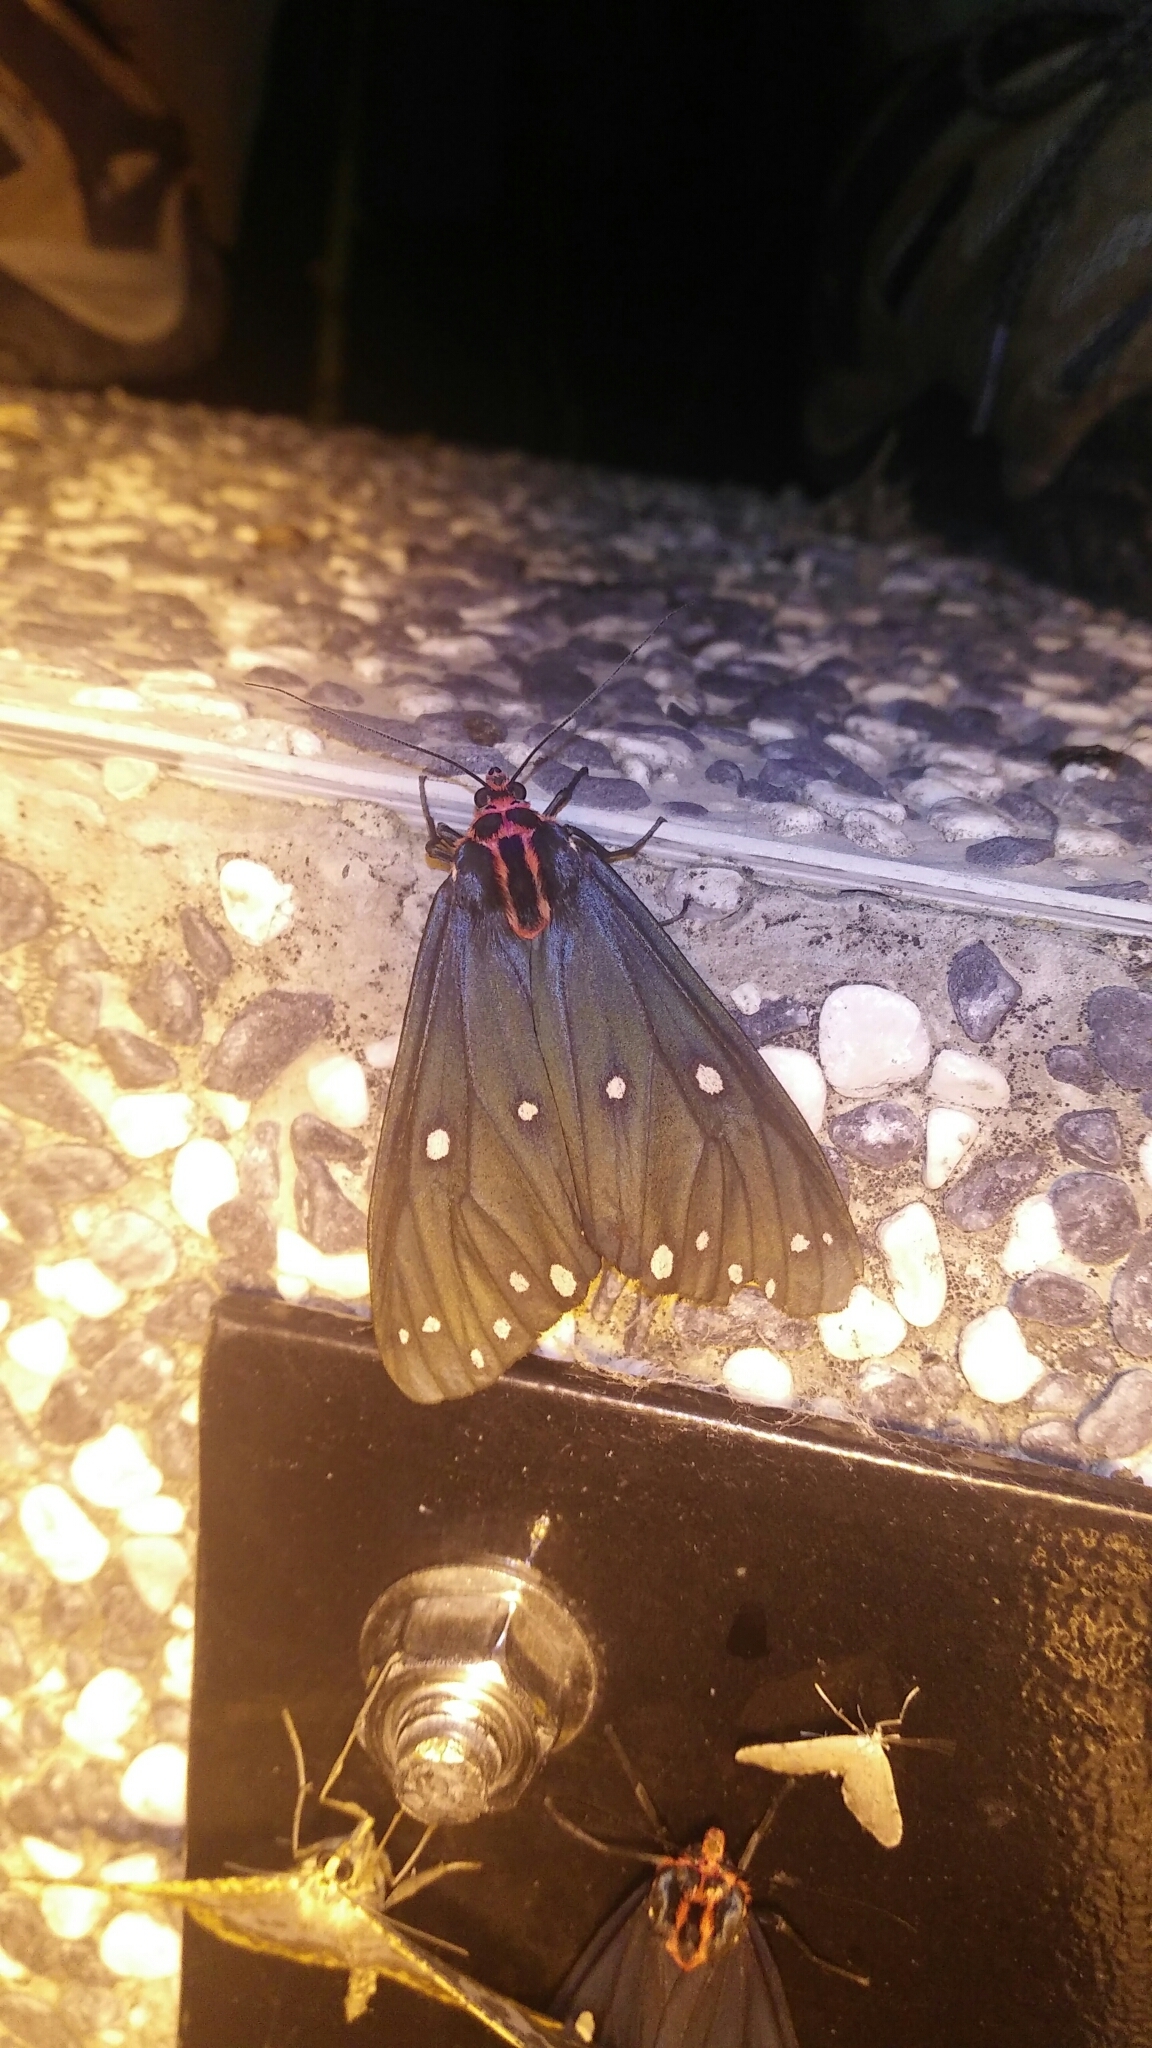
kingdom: Animalia
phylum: Arthropoda
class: Insecta
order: Lepidoptera
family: Erebidae
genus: Taicallimorpha
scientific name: Taicallimorpha albipuncta
